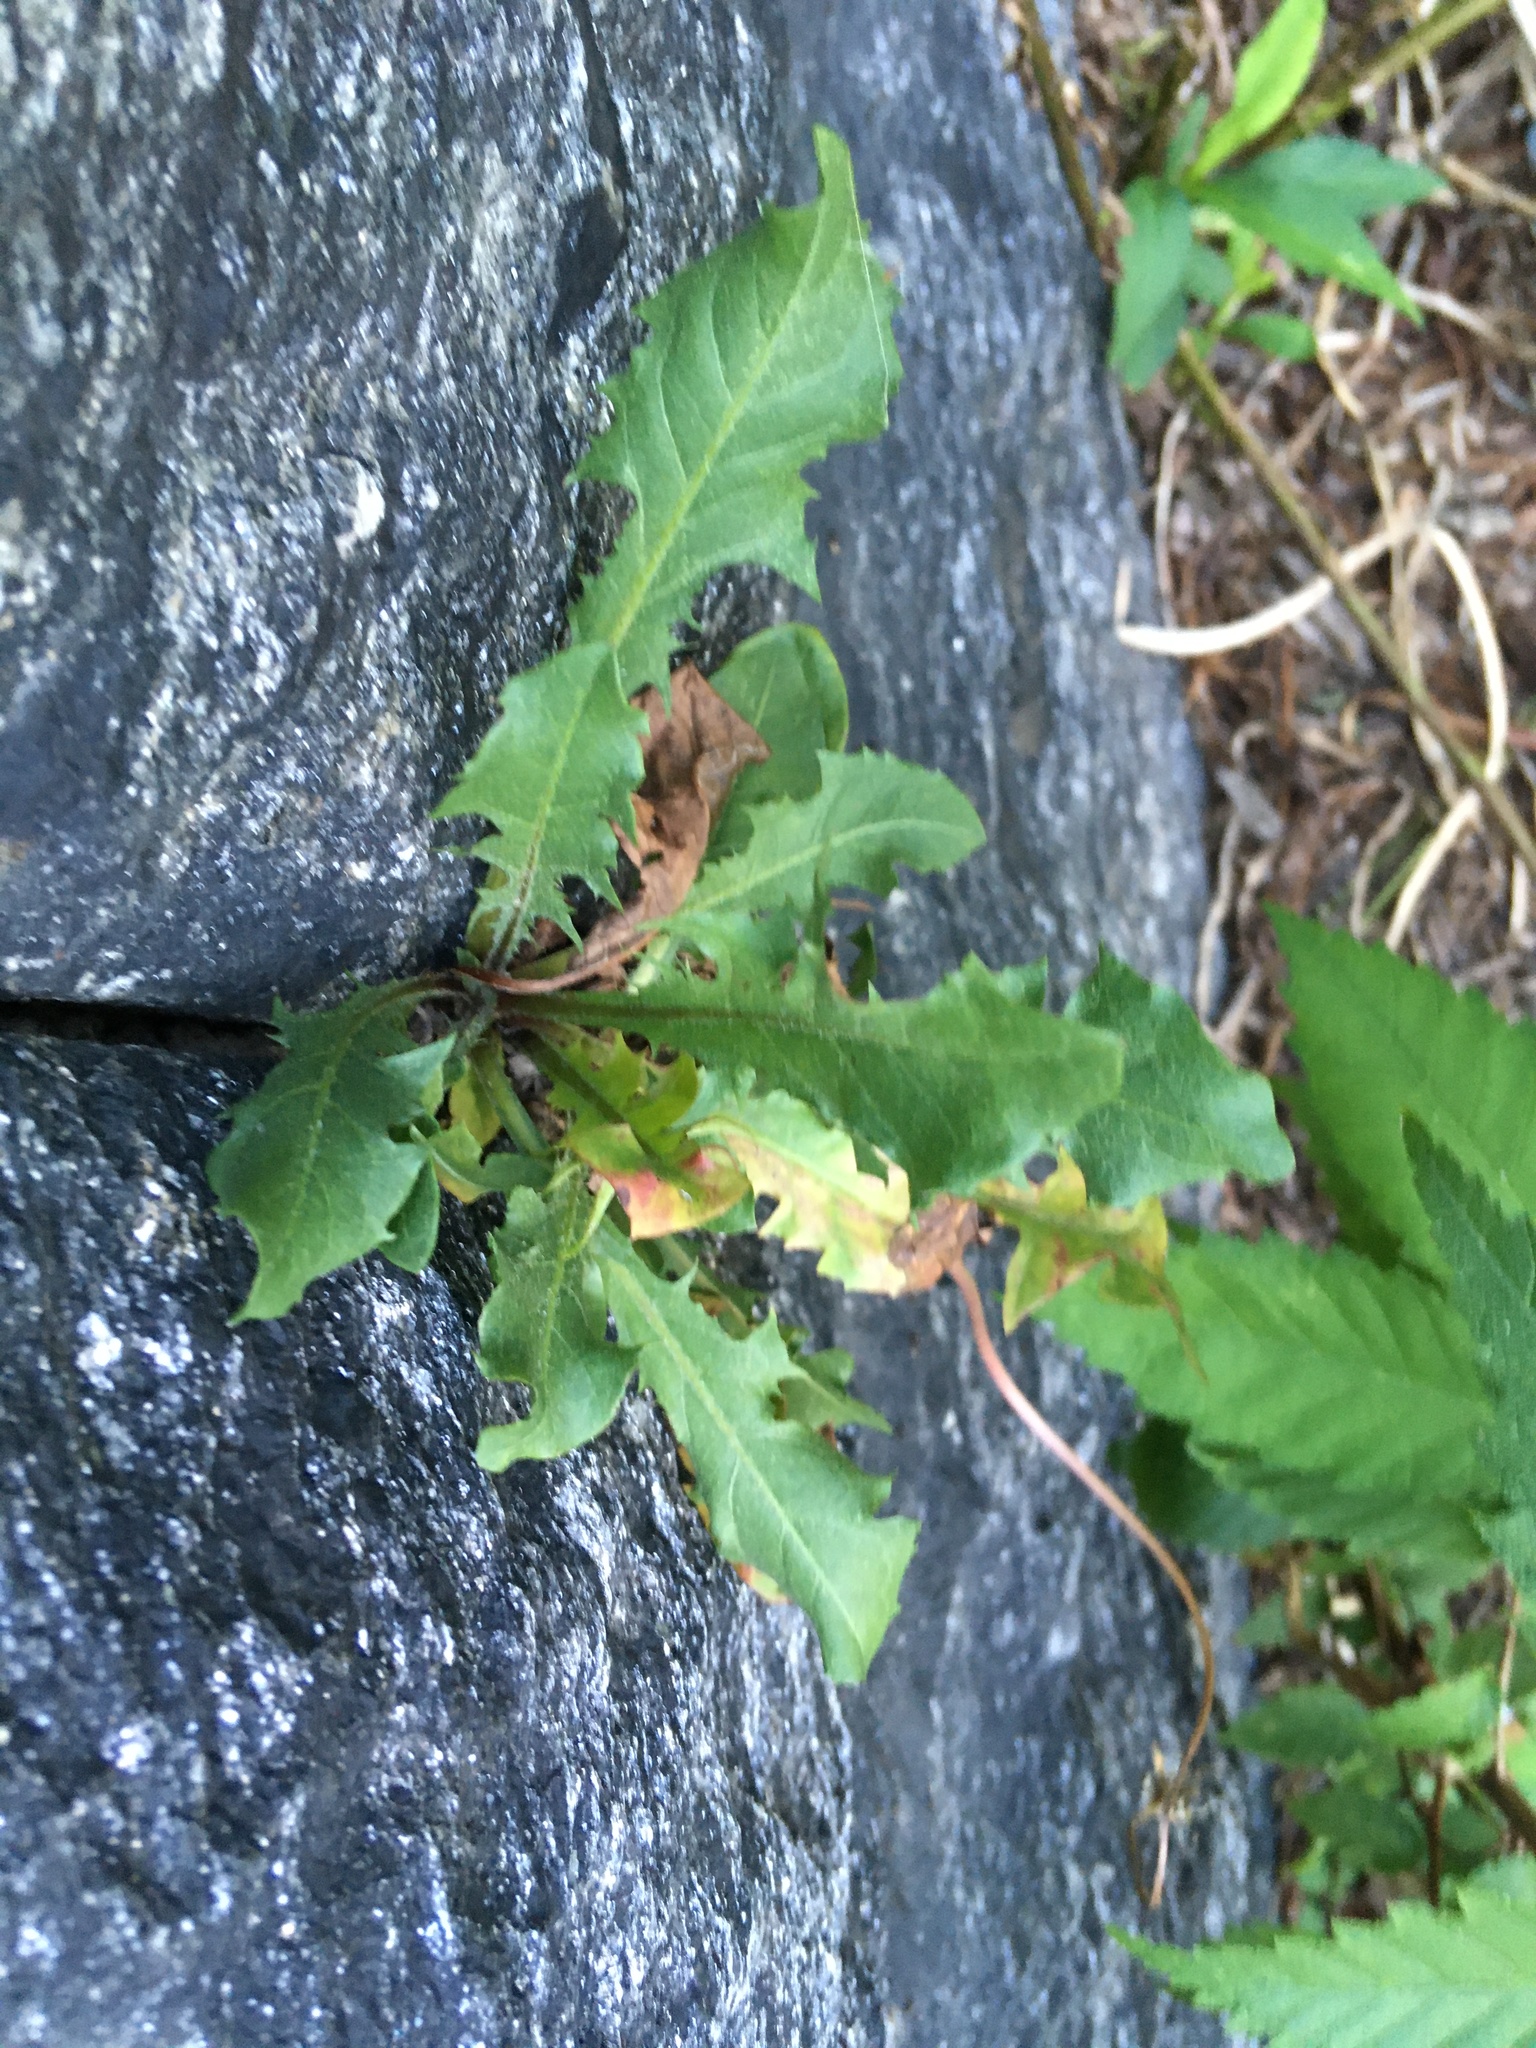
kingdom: Plantae
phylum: Tracheophyta
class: Magnoliopsida
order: Asterales
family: Asteraceae
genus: Taraxacum
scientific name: Taraxacum officinale
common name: Common dandelion
